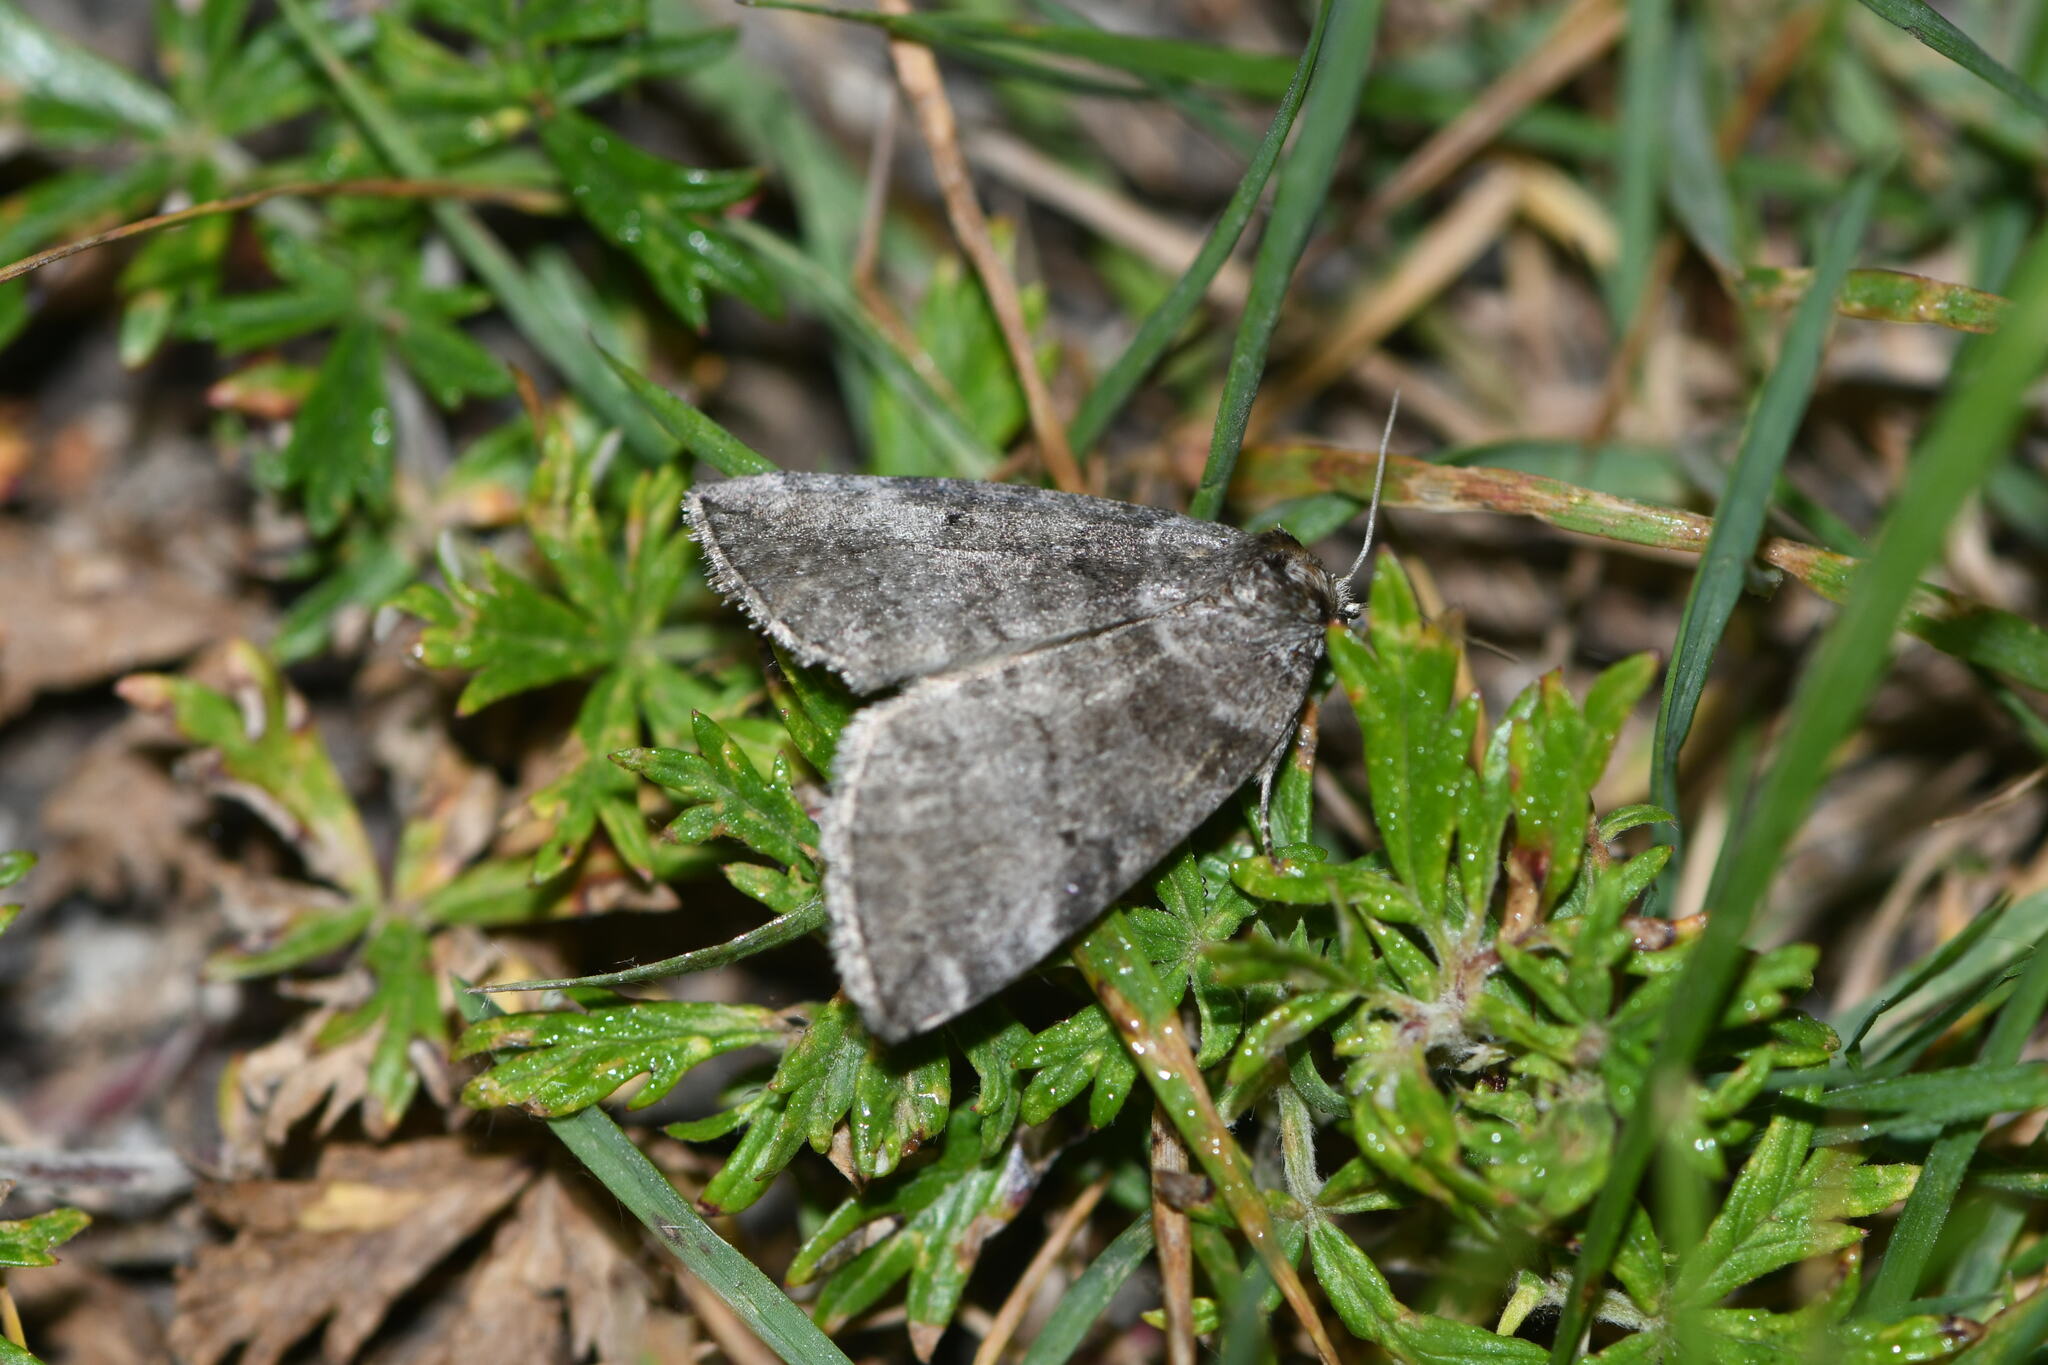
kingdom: Animalia
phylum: Arthropoda
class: Insecta
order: Lepidoptera
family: Drepanidae
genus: Ochropacha
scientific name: Ochropacha duplaris
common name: Common lutestring
